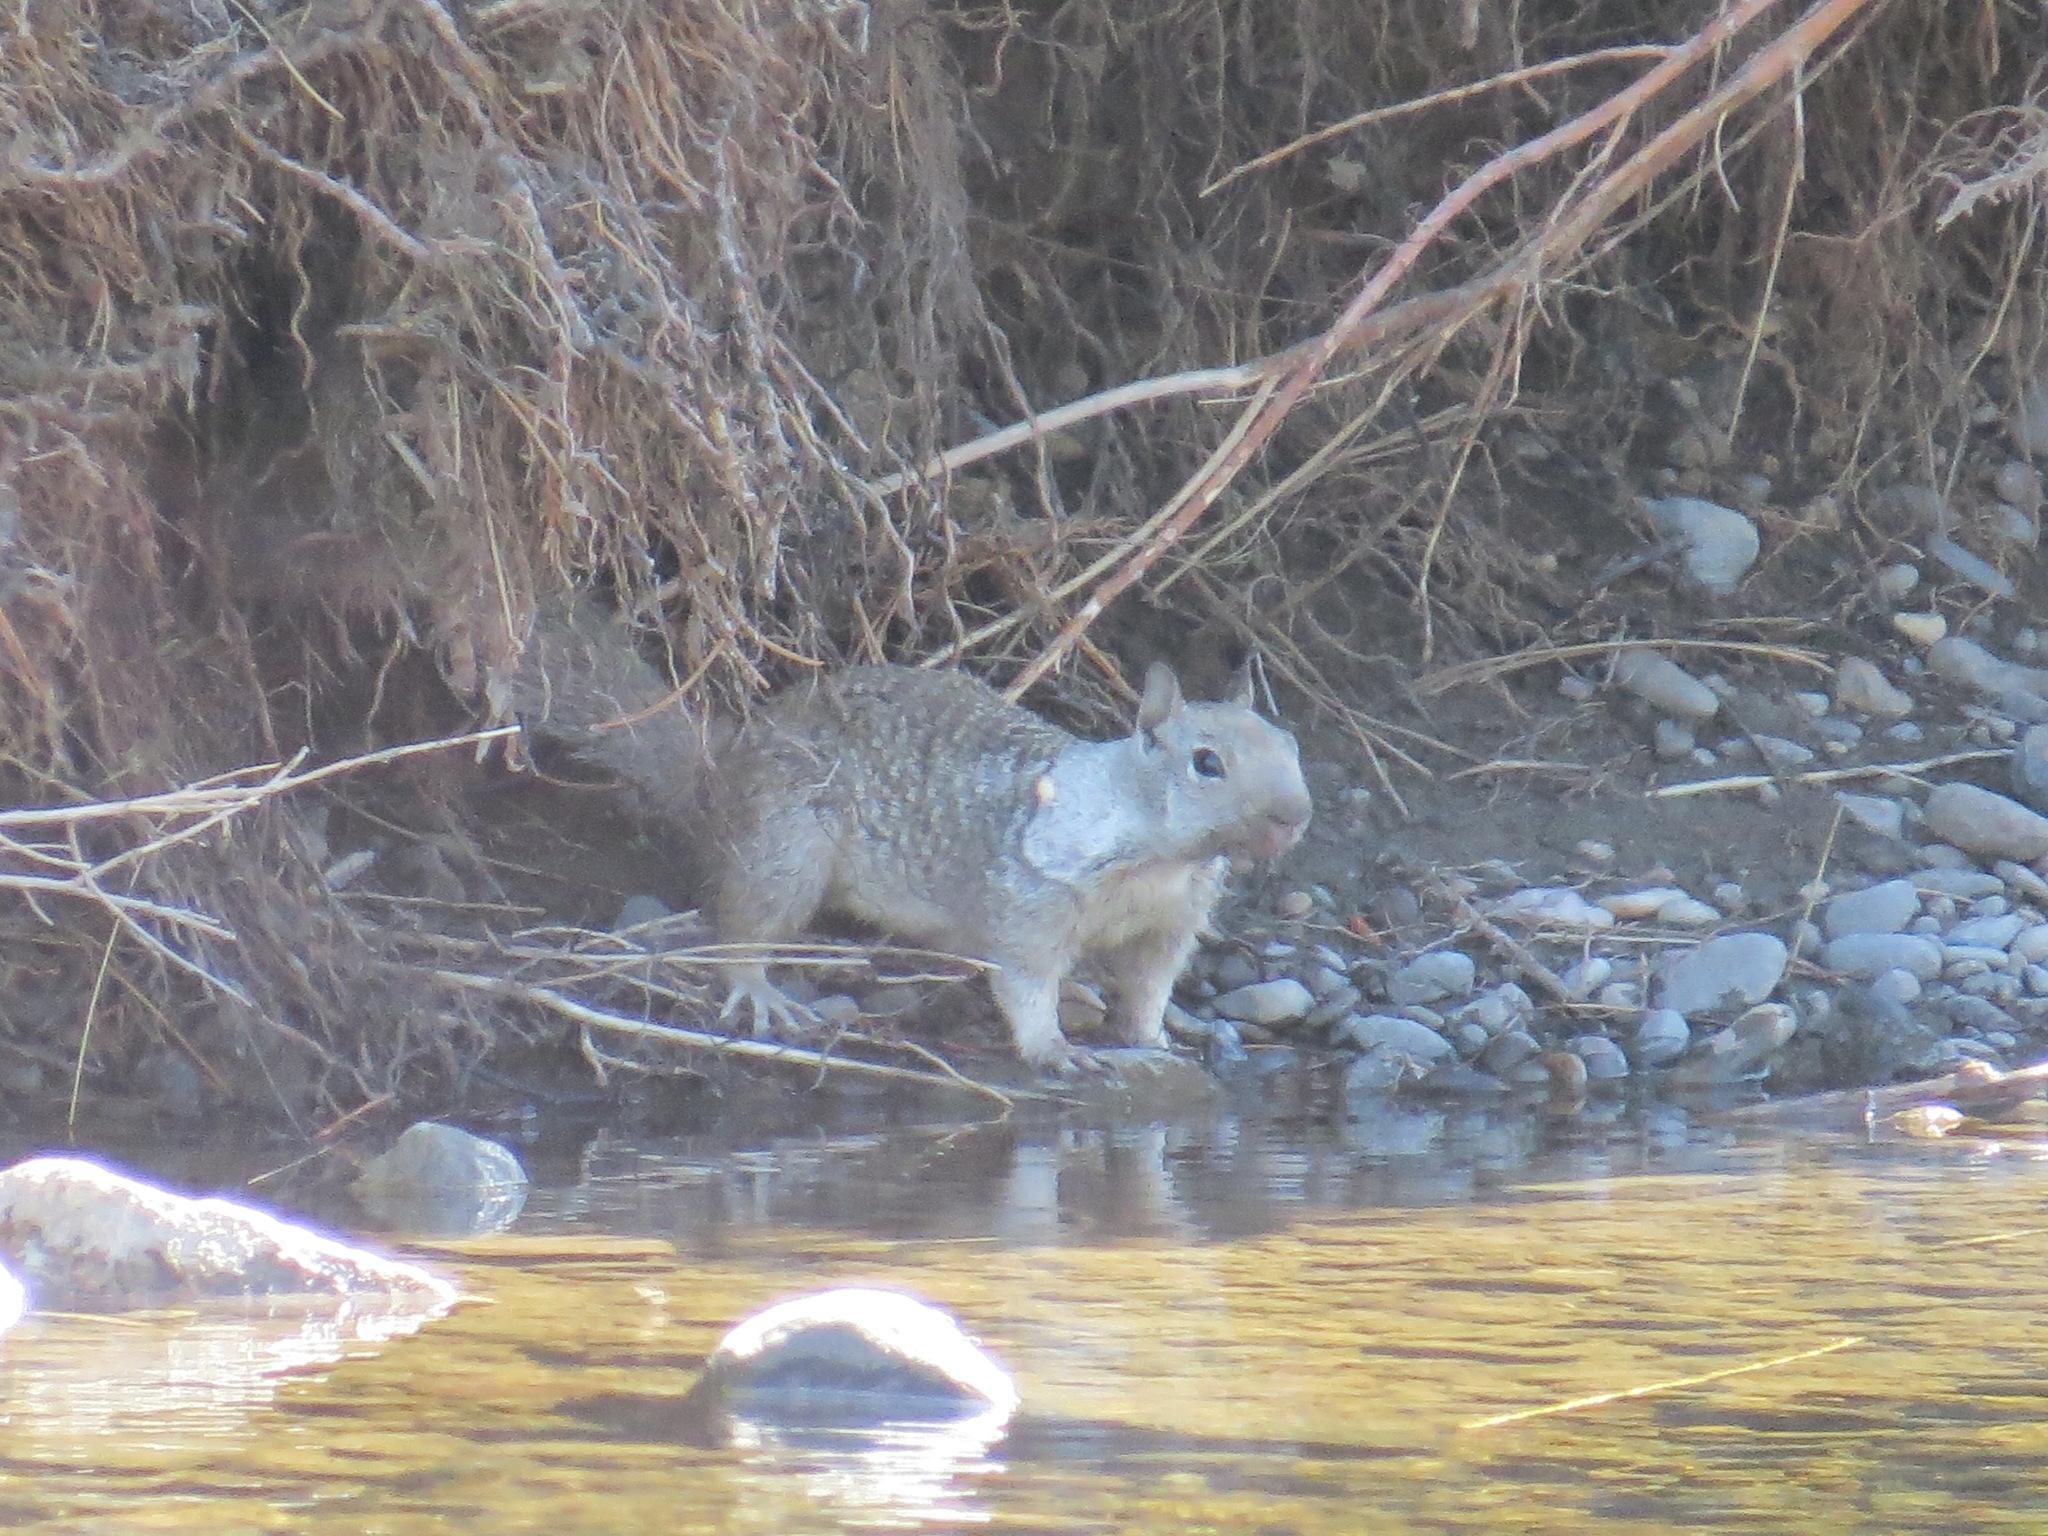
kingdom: Animalia
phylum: Chordata
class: Mammalia
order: Rodentia
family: Sciuridae
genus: Otospermophilus
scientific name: Otospermophilus beecheyi
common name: California ground squirrel
